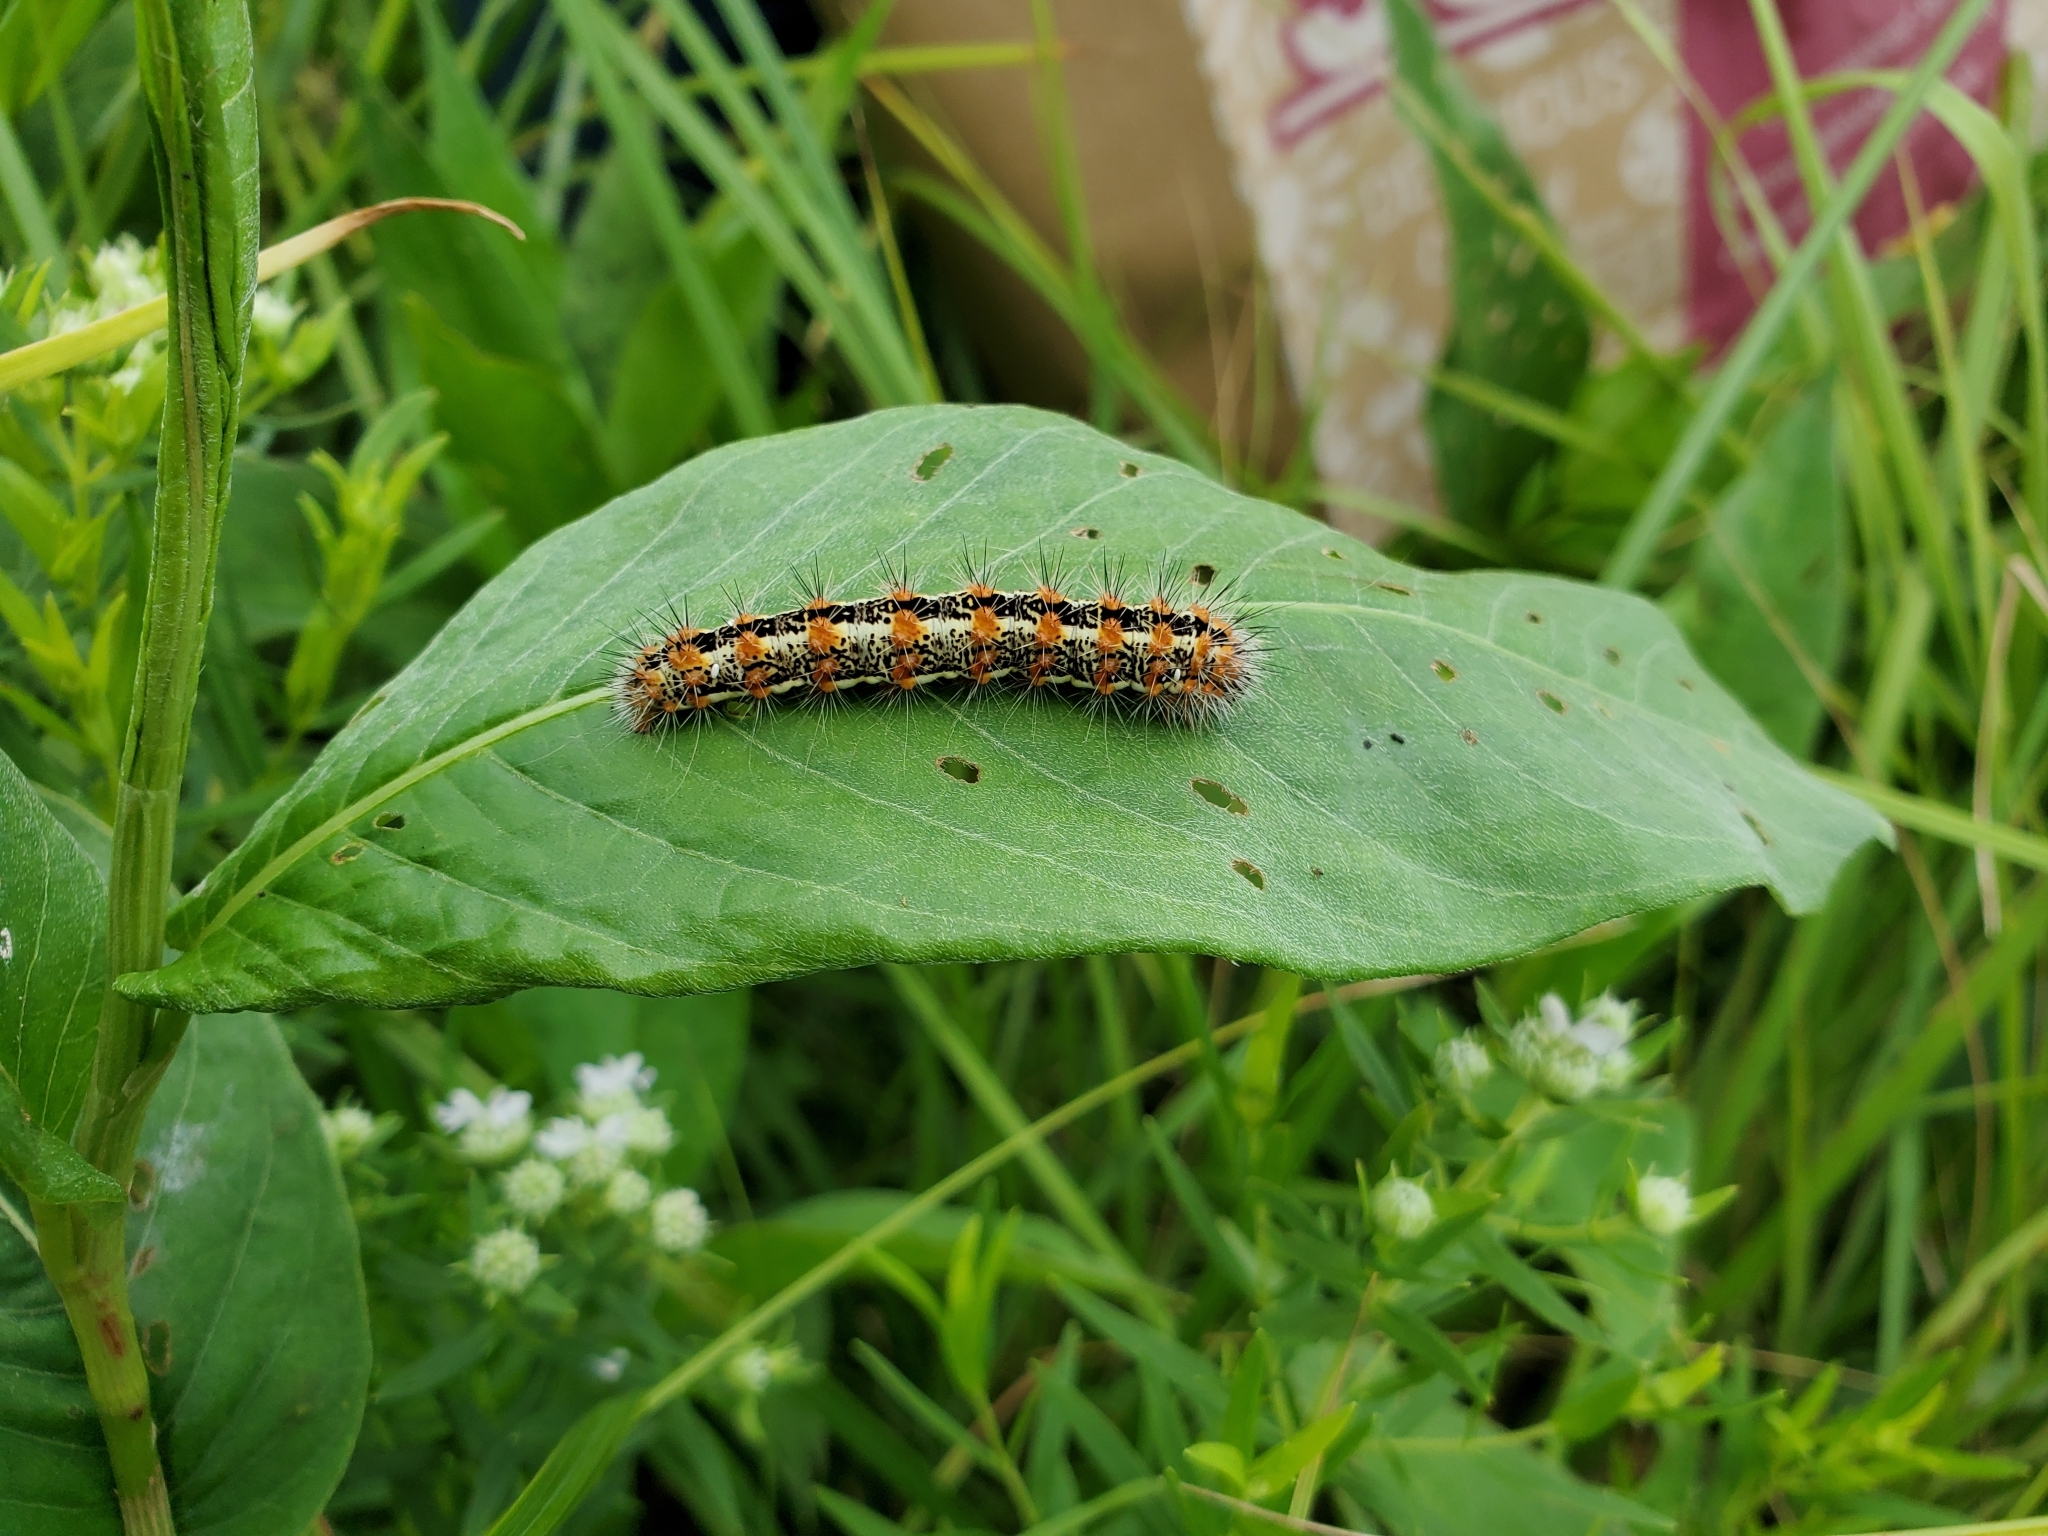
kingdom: Animalia
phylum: Arthropoda
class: Insecta
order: Lepidoptera
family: Noctuidae
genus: Acronicta
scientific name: Acronicta insularis
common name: Henry's marsh moth
